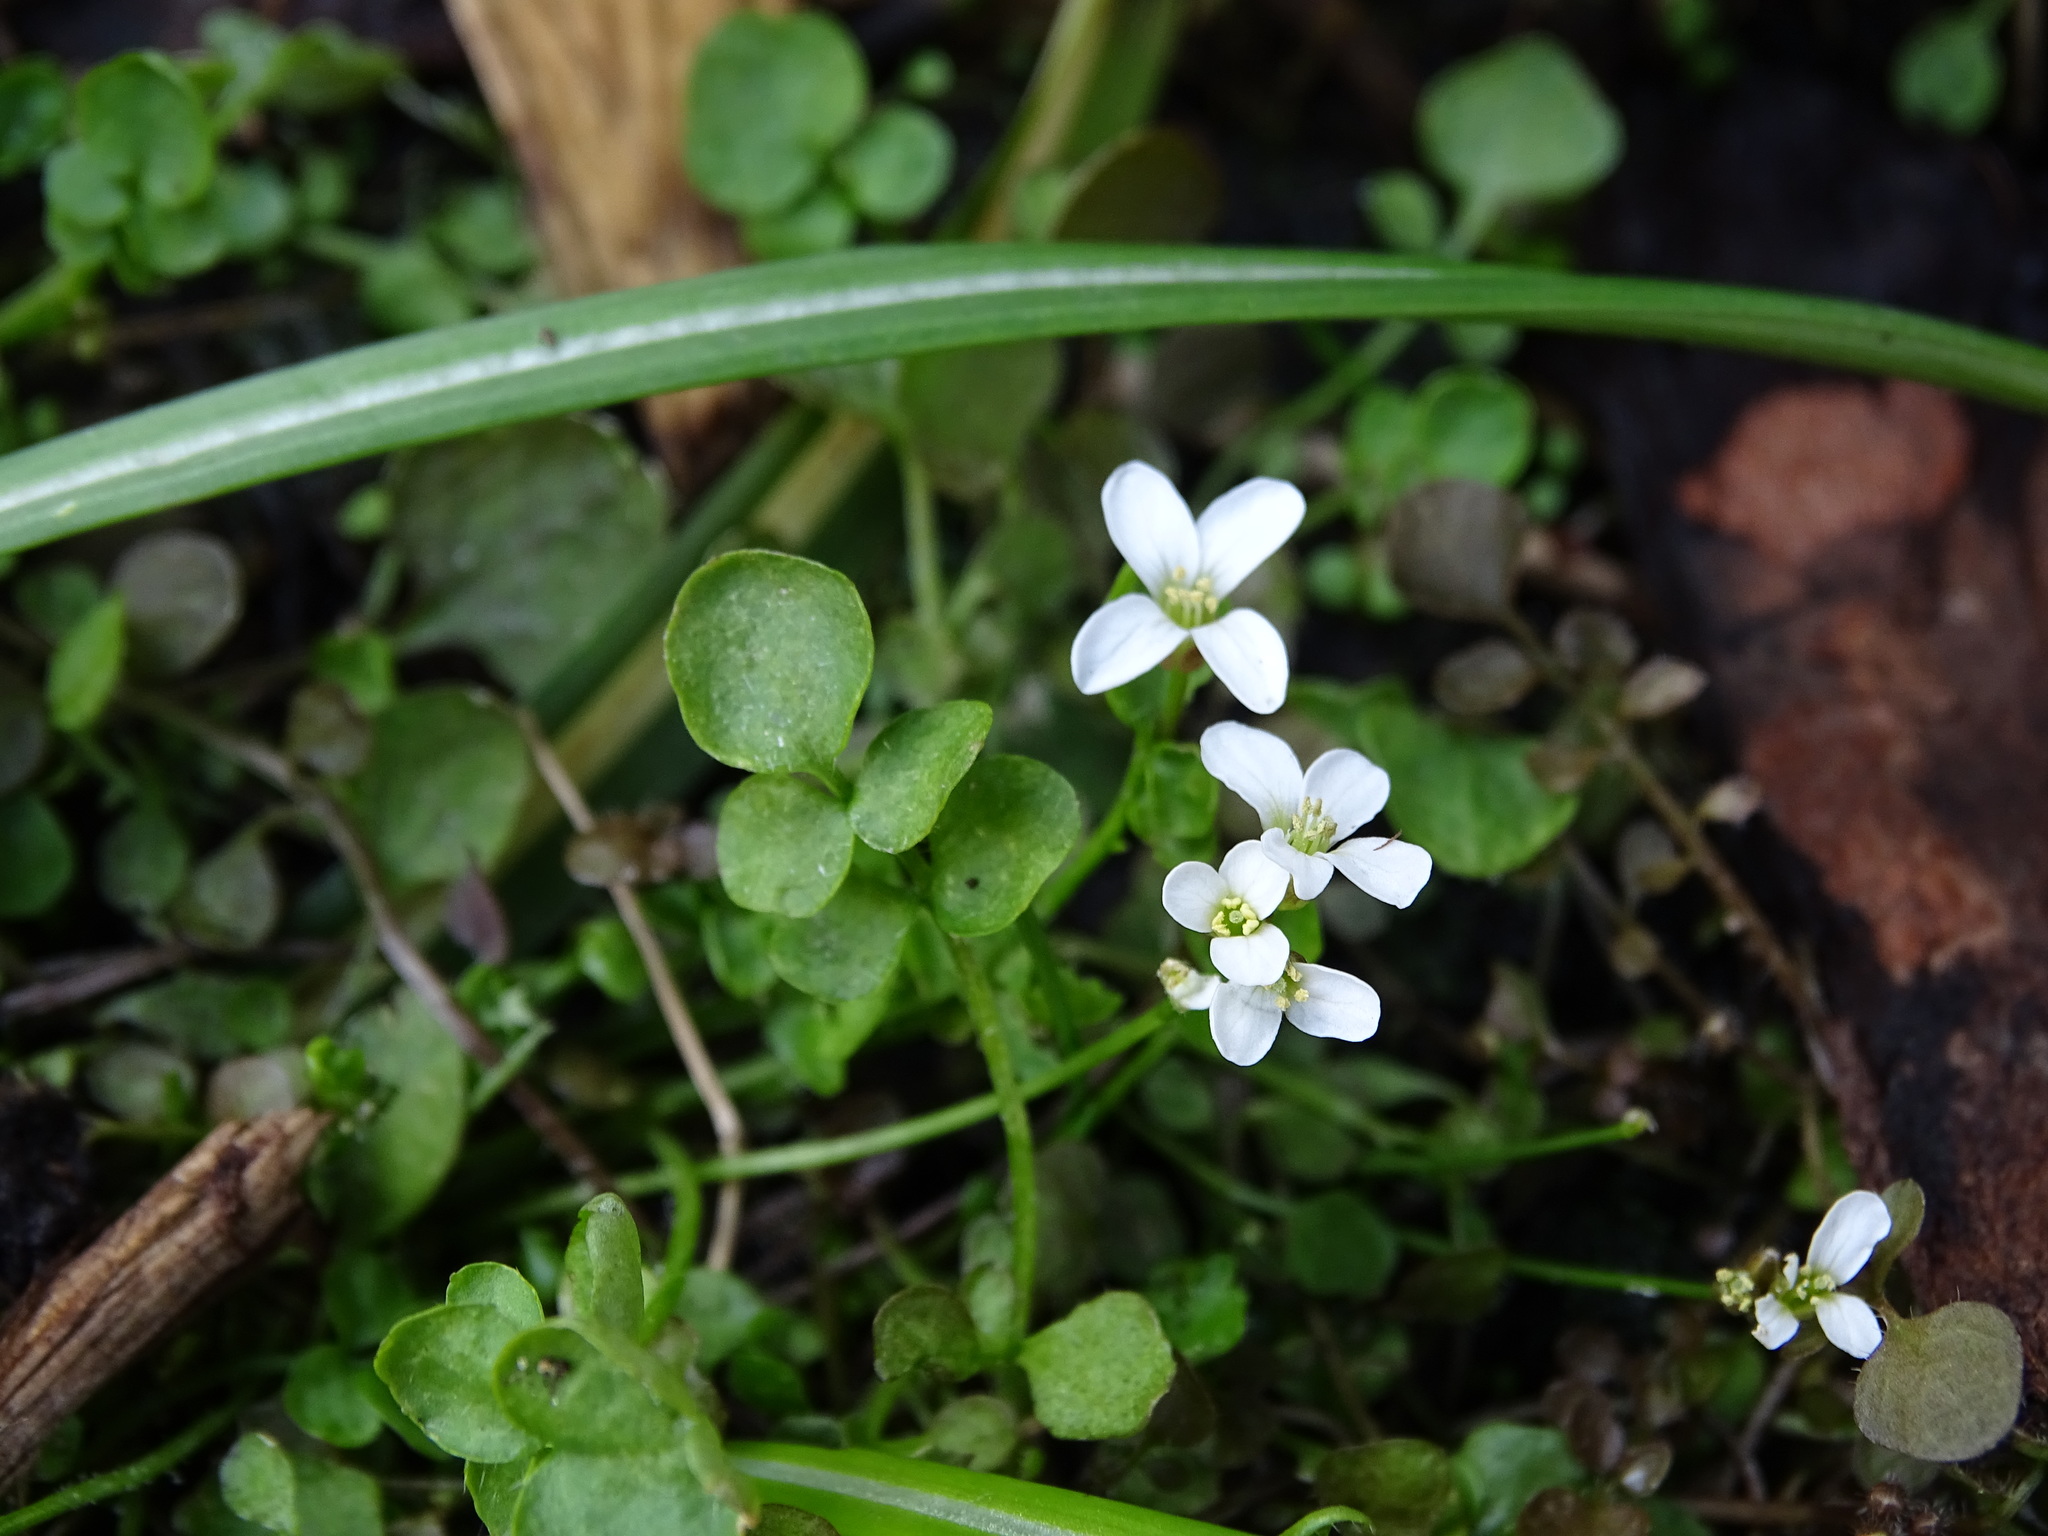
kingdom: Plantae
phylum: Tracheophyta
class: Magnoliopsida
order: Brassicales
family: Brassicaceae
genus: Cardamine
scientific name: Cardamine hirsuta
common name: Hairy bittercress
